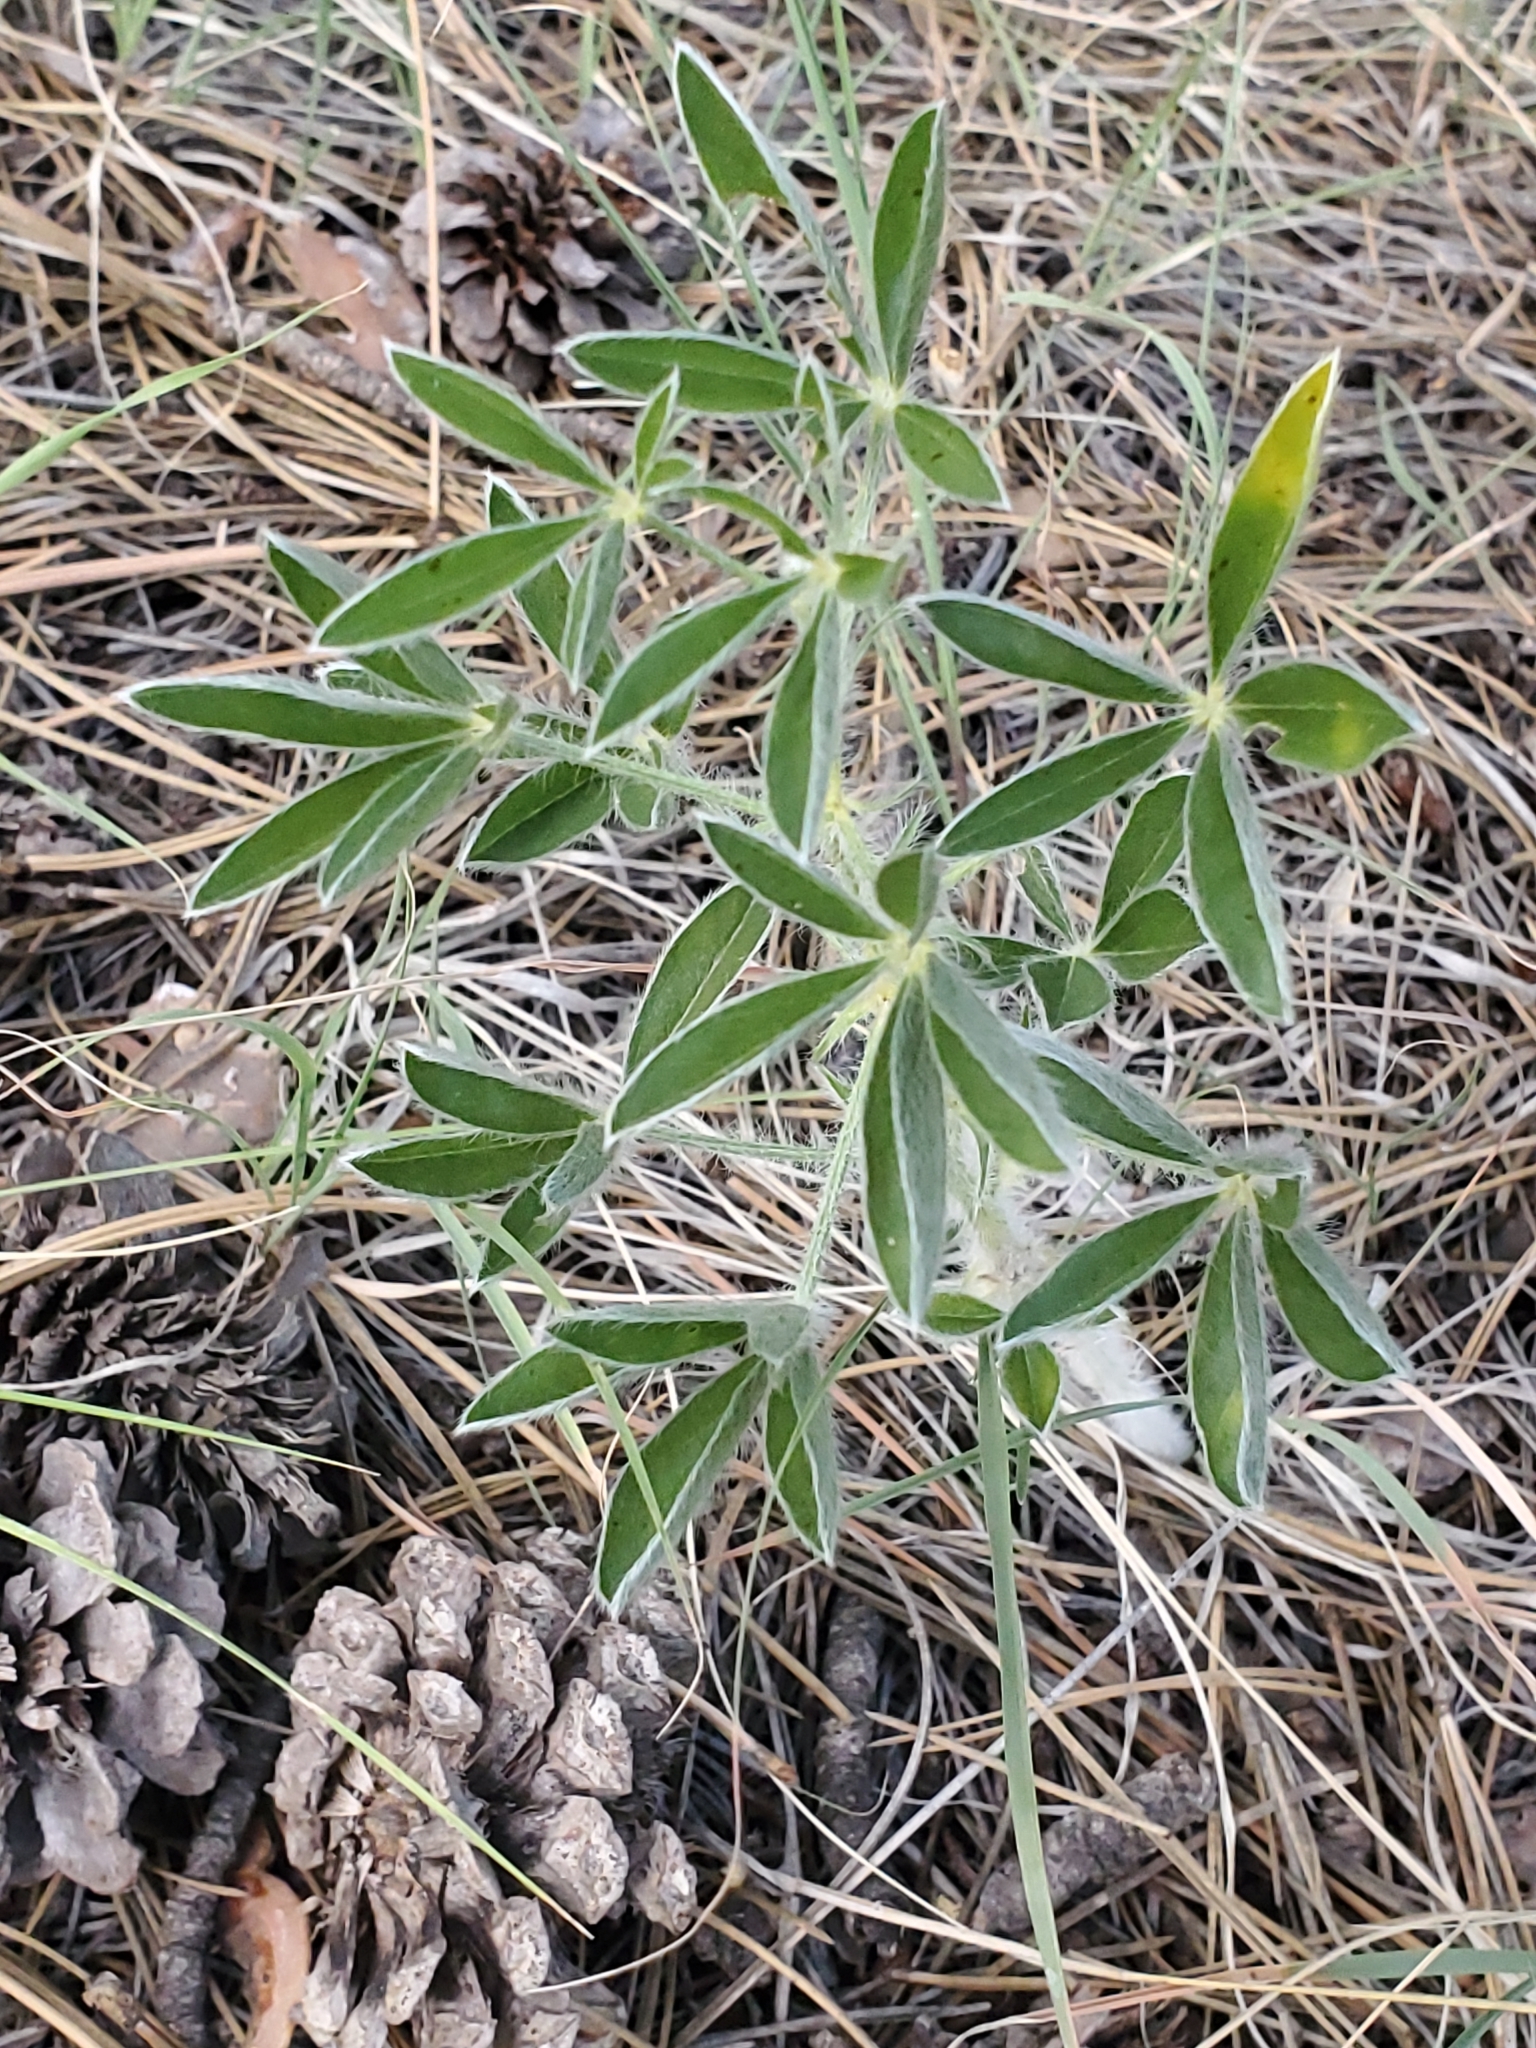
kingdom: Plantae
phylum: Tracheophyta
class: Magnoliopsida
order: Fabales
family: Fabaceae
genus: Pediomelum
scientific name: Pediomelum esculentum
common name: Indian-turnip
